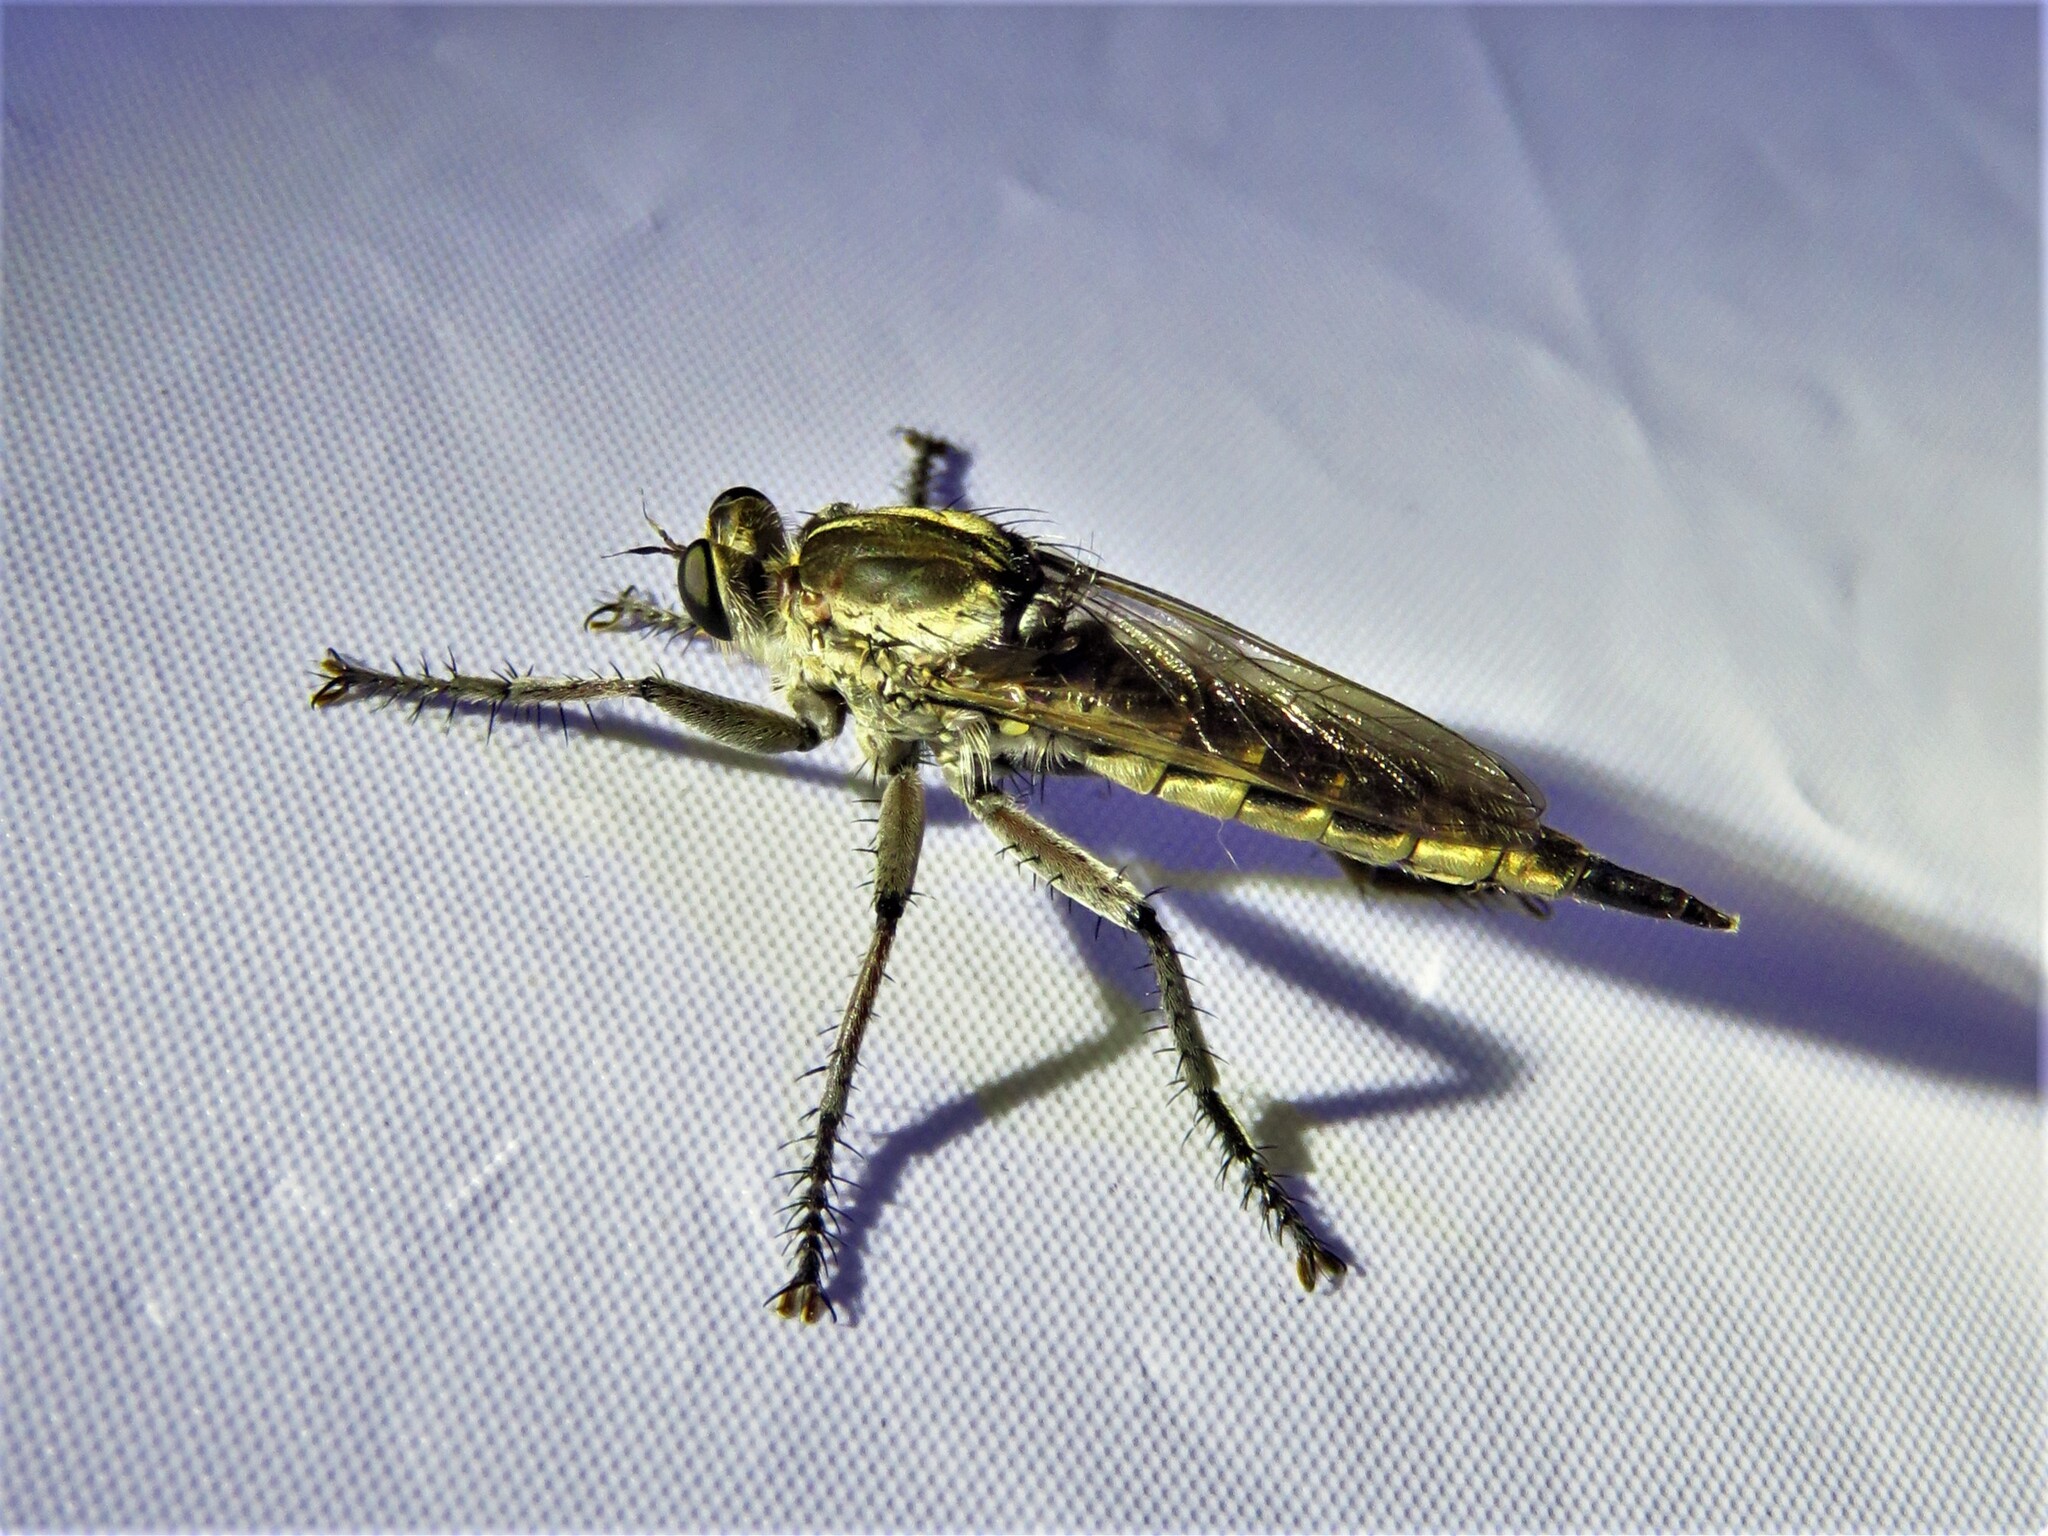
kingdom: Animalia
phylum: Arthropoda
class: Insecta
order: Diptera
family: Asilidae
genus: Triorla
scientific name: Triorla interrupta
